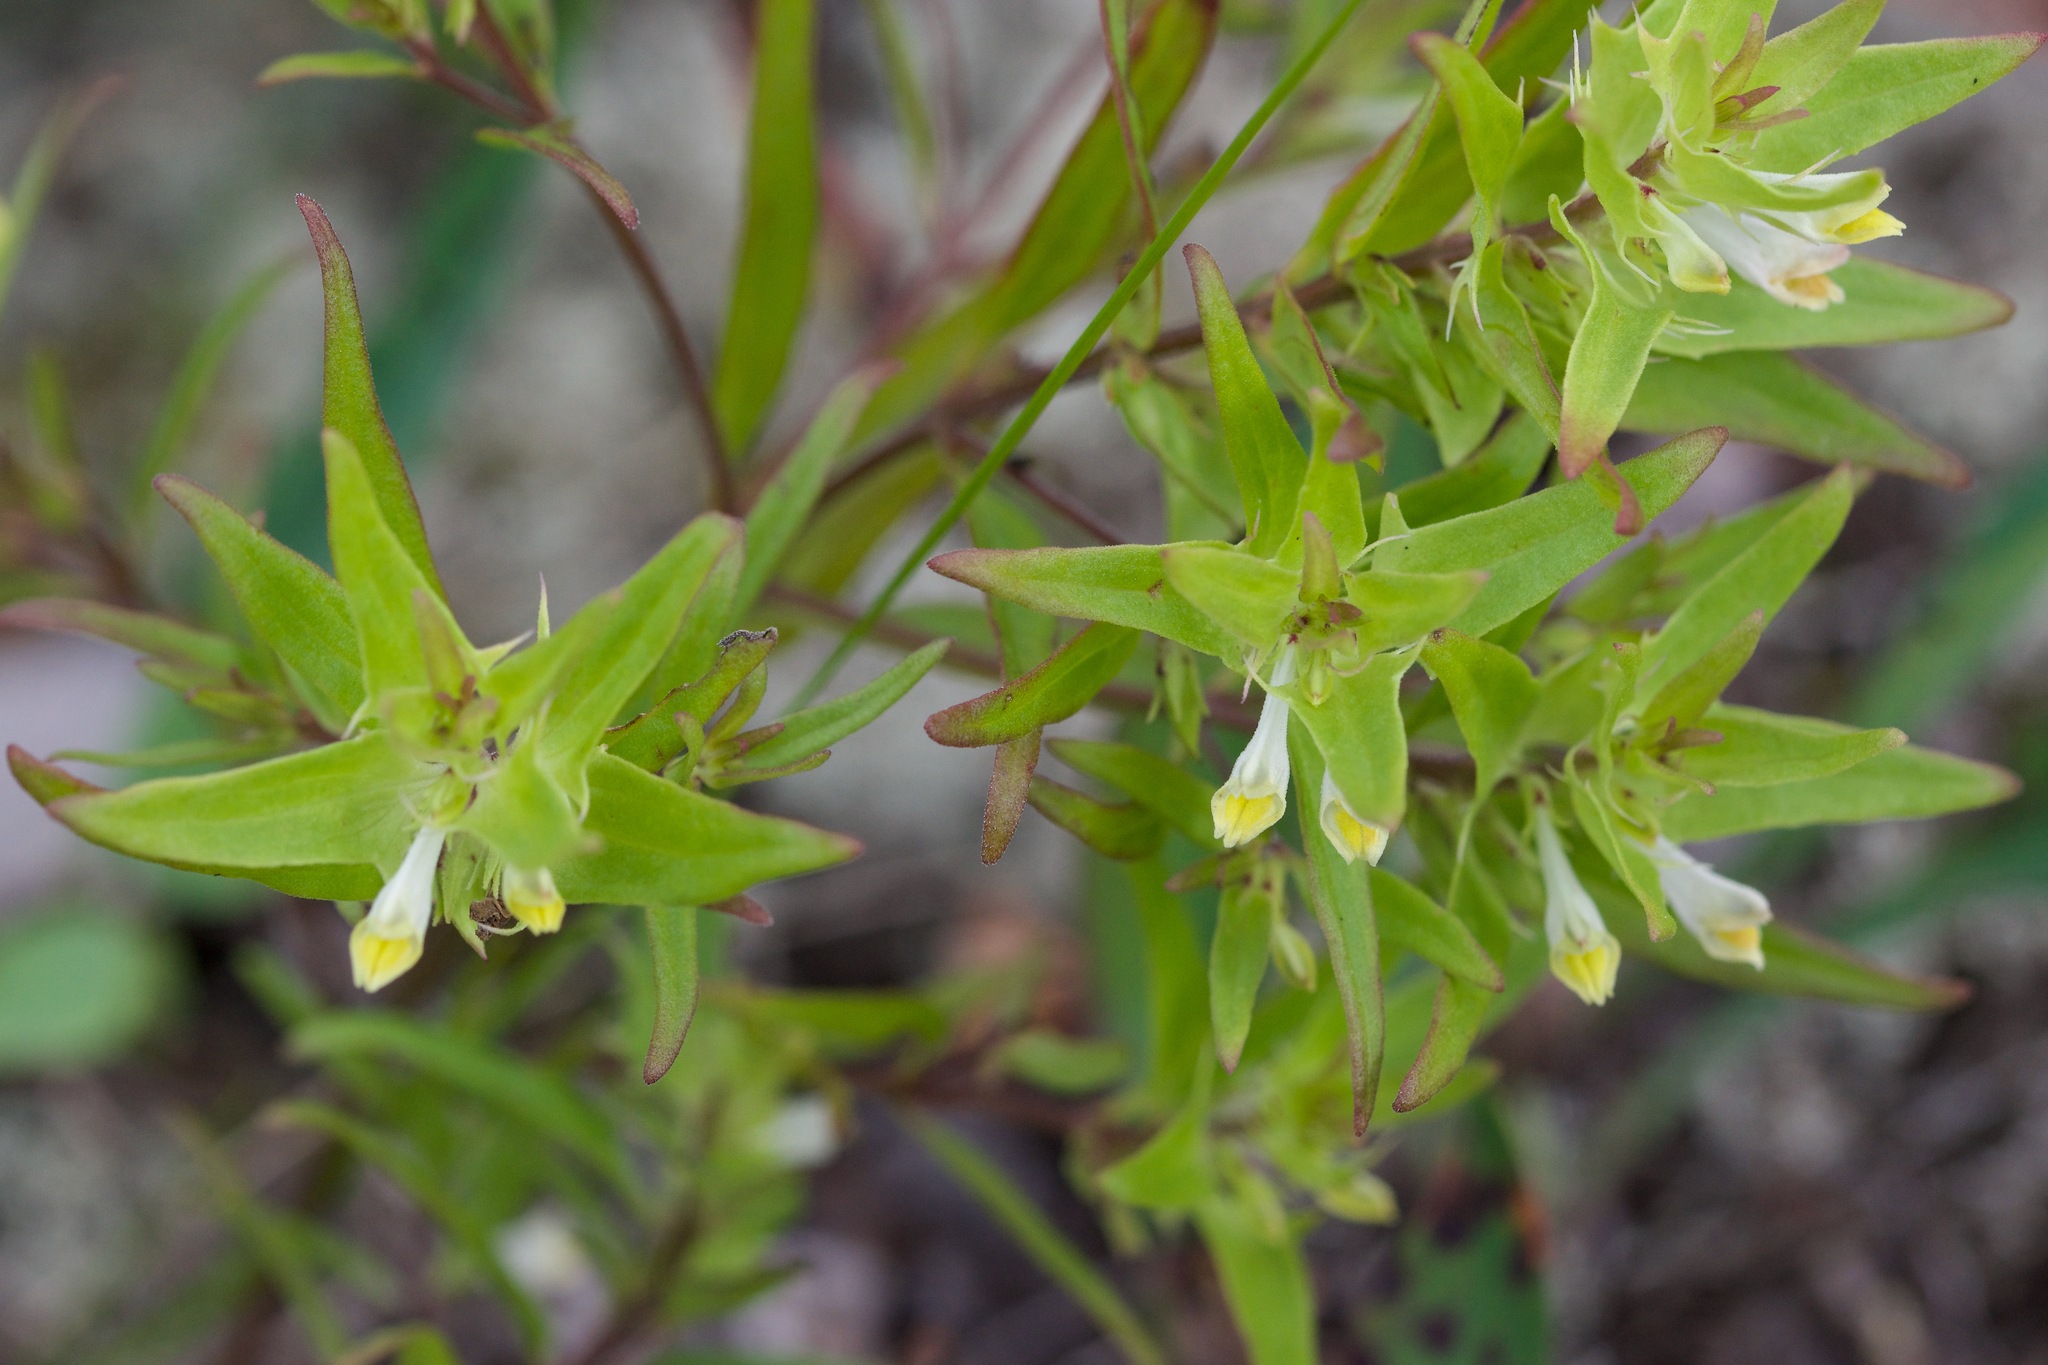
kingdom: Plantae
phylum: Tracheophyta
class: Magnoliopsida
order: Lamiales
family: Orobanchaceae
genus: Melampyrum
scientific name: Melampyrum lineare
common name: American cow-wheat
